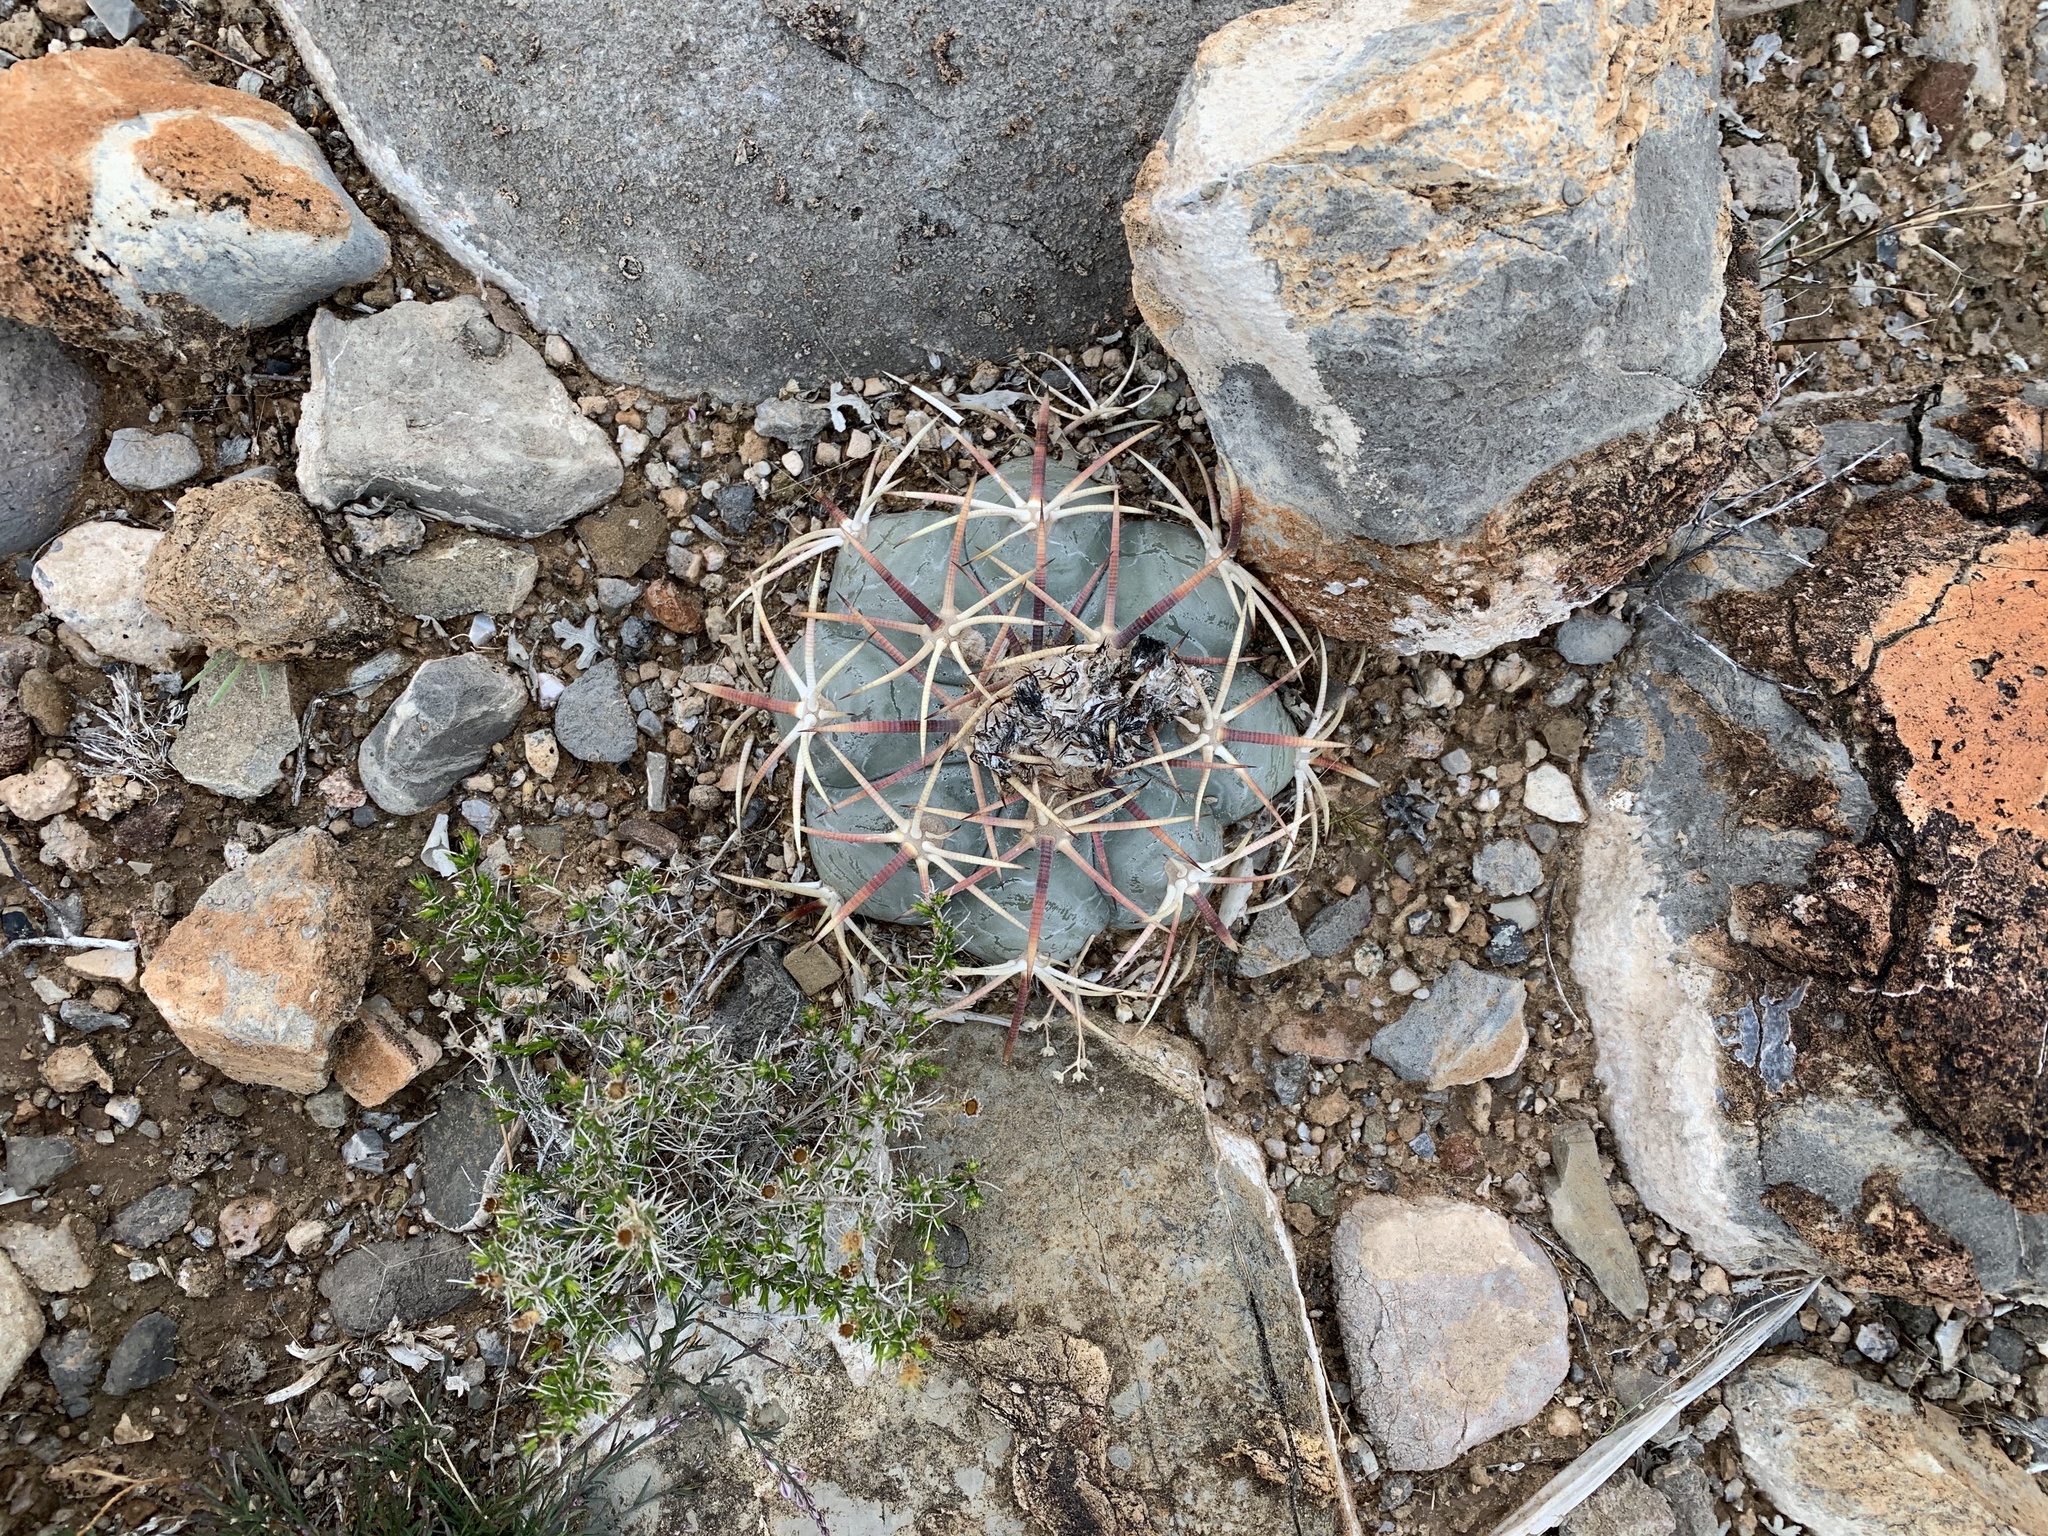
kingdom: Plantae
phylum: Tracheophyta
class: Magnoliopsida
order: Caryophyllales
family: Cactaceae
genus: Echinocactus
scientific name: Echinocactus horizonthalonius
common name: Devilshead
